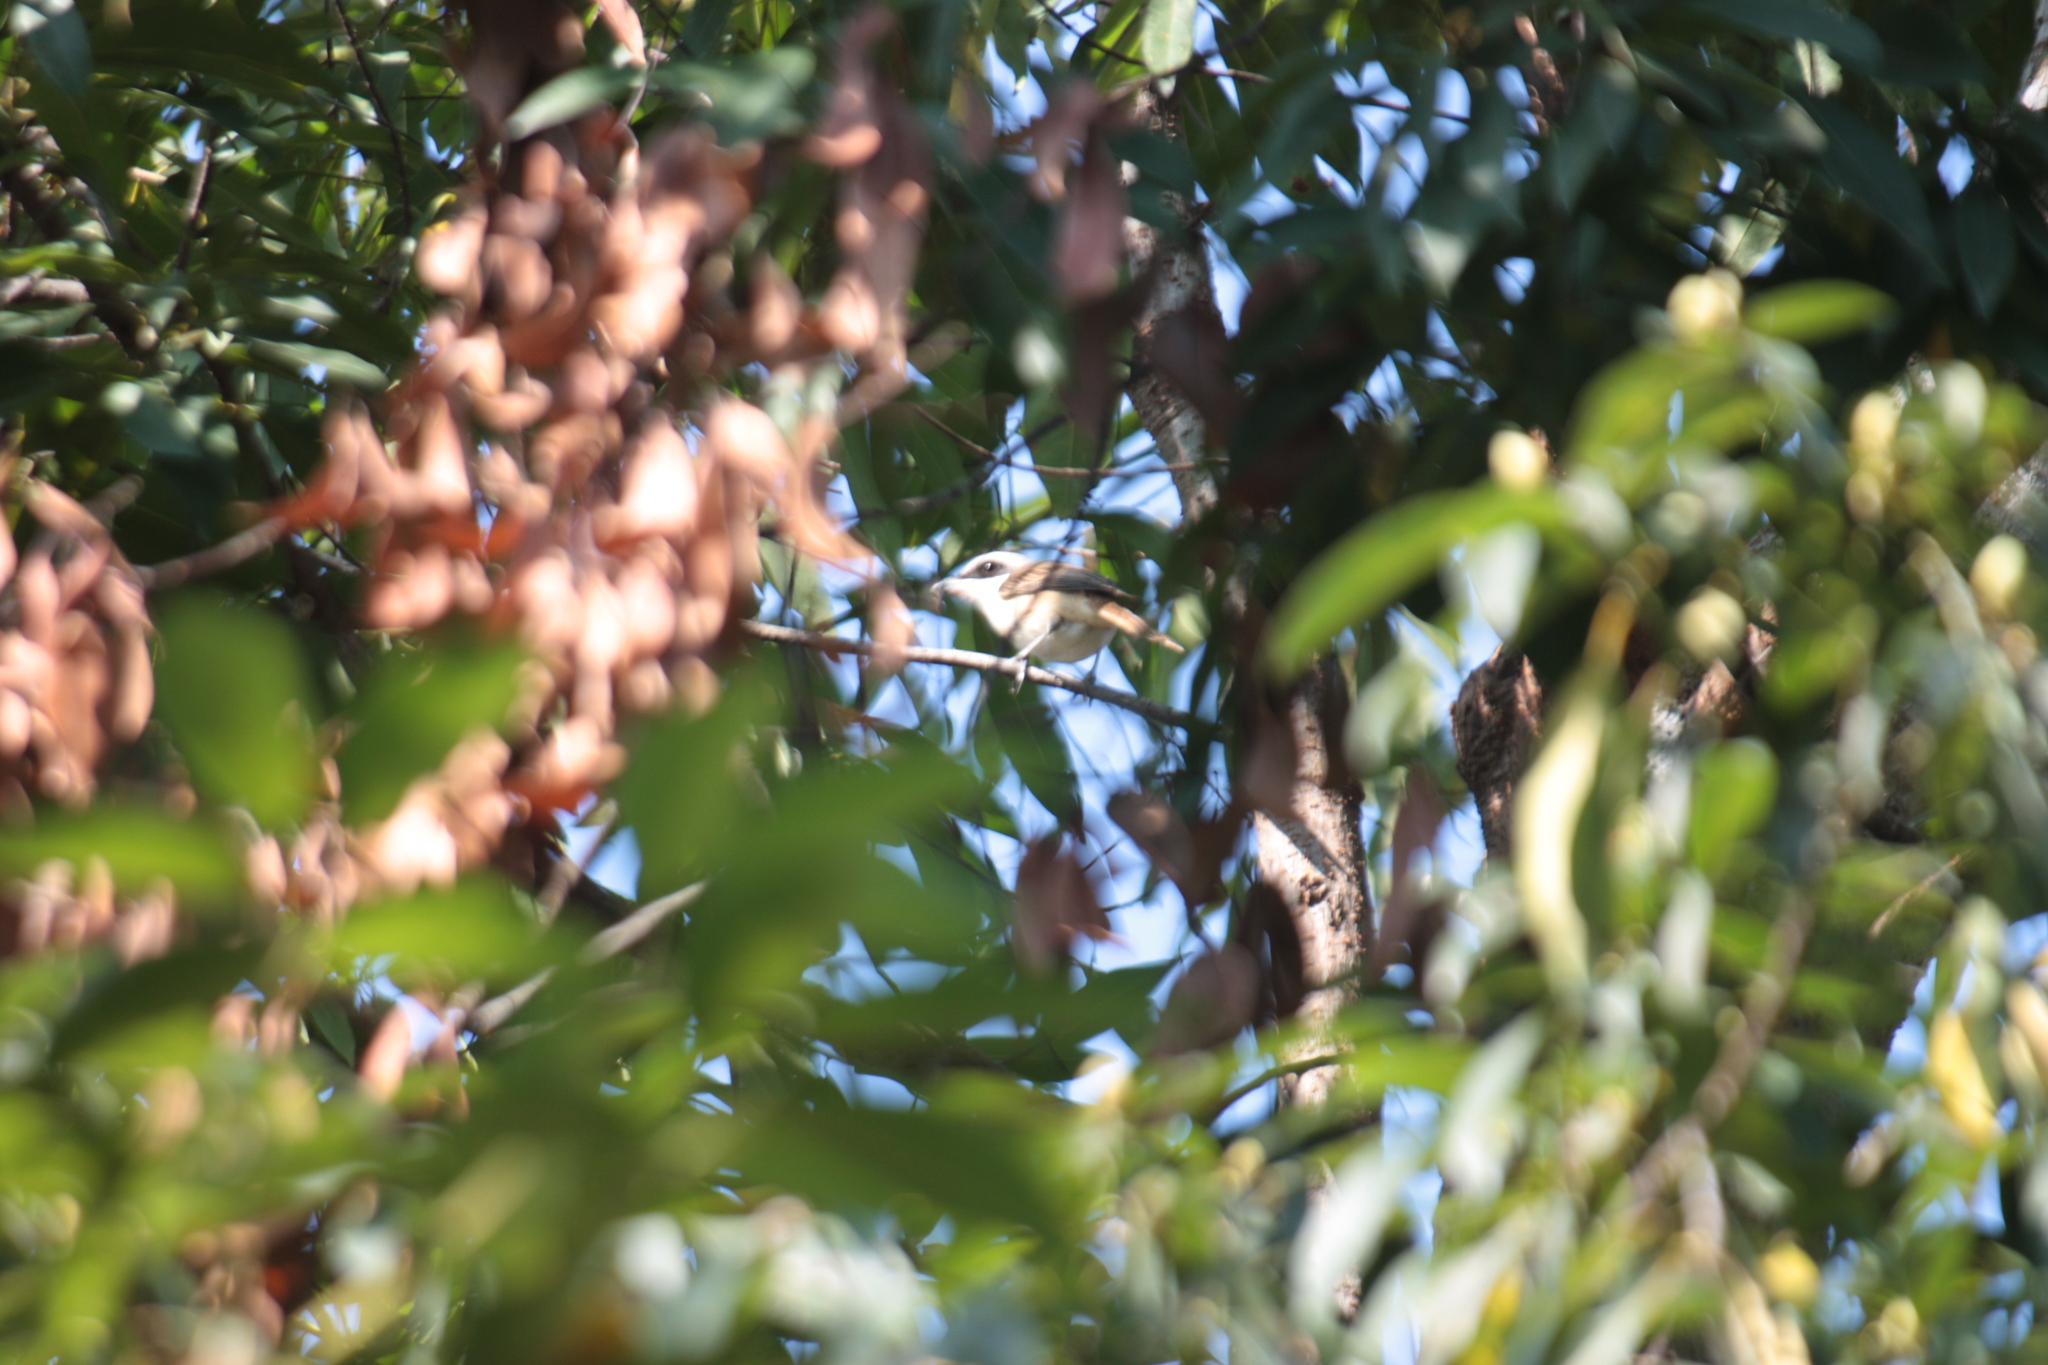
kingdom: Animalia
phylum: Chordata
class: Aves
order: Passeriformes
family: Laniidae
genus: Lanius
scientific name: Lanius cristatus
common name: Brown shrike
